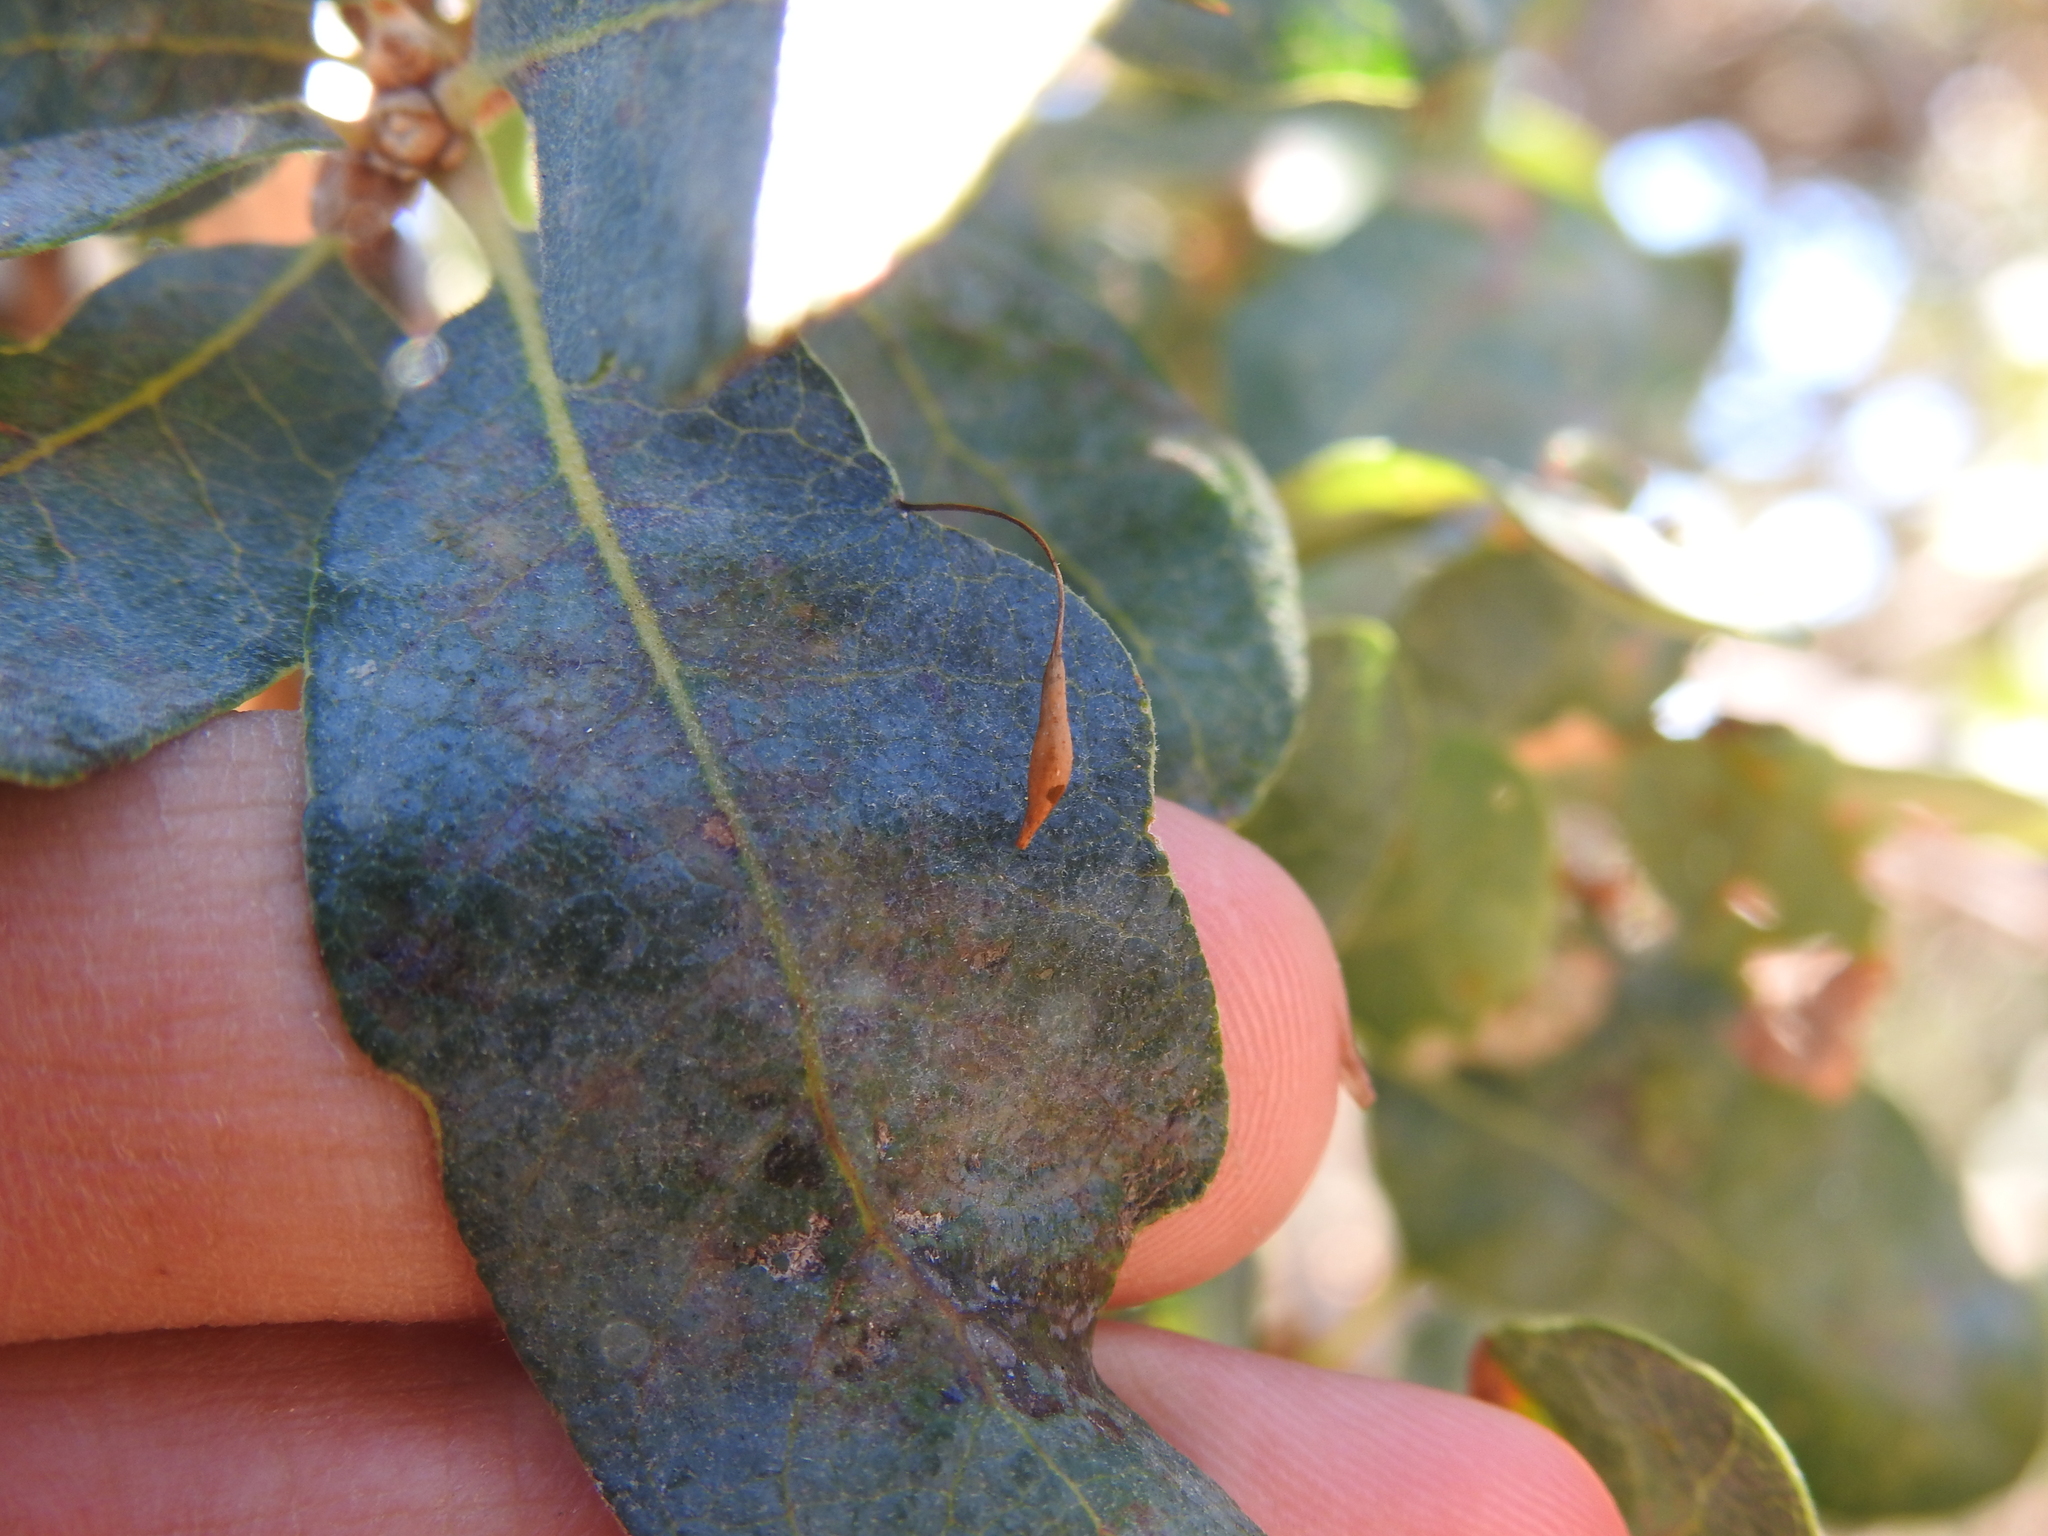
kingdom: Animalia
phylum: Arthropoda
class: Insecta
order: Hymenoptera
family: Cynipidae
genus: Andricus
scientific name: Andricus
